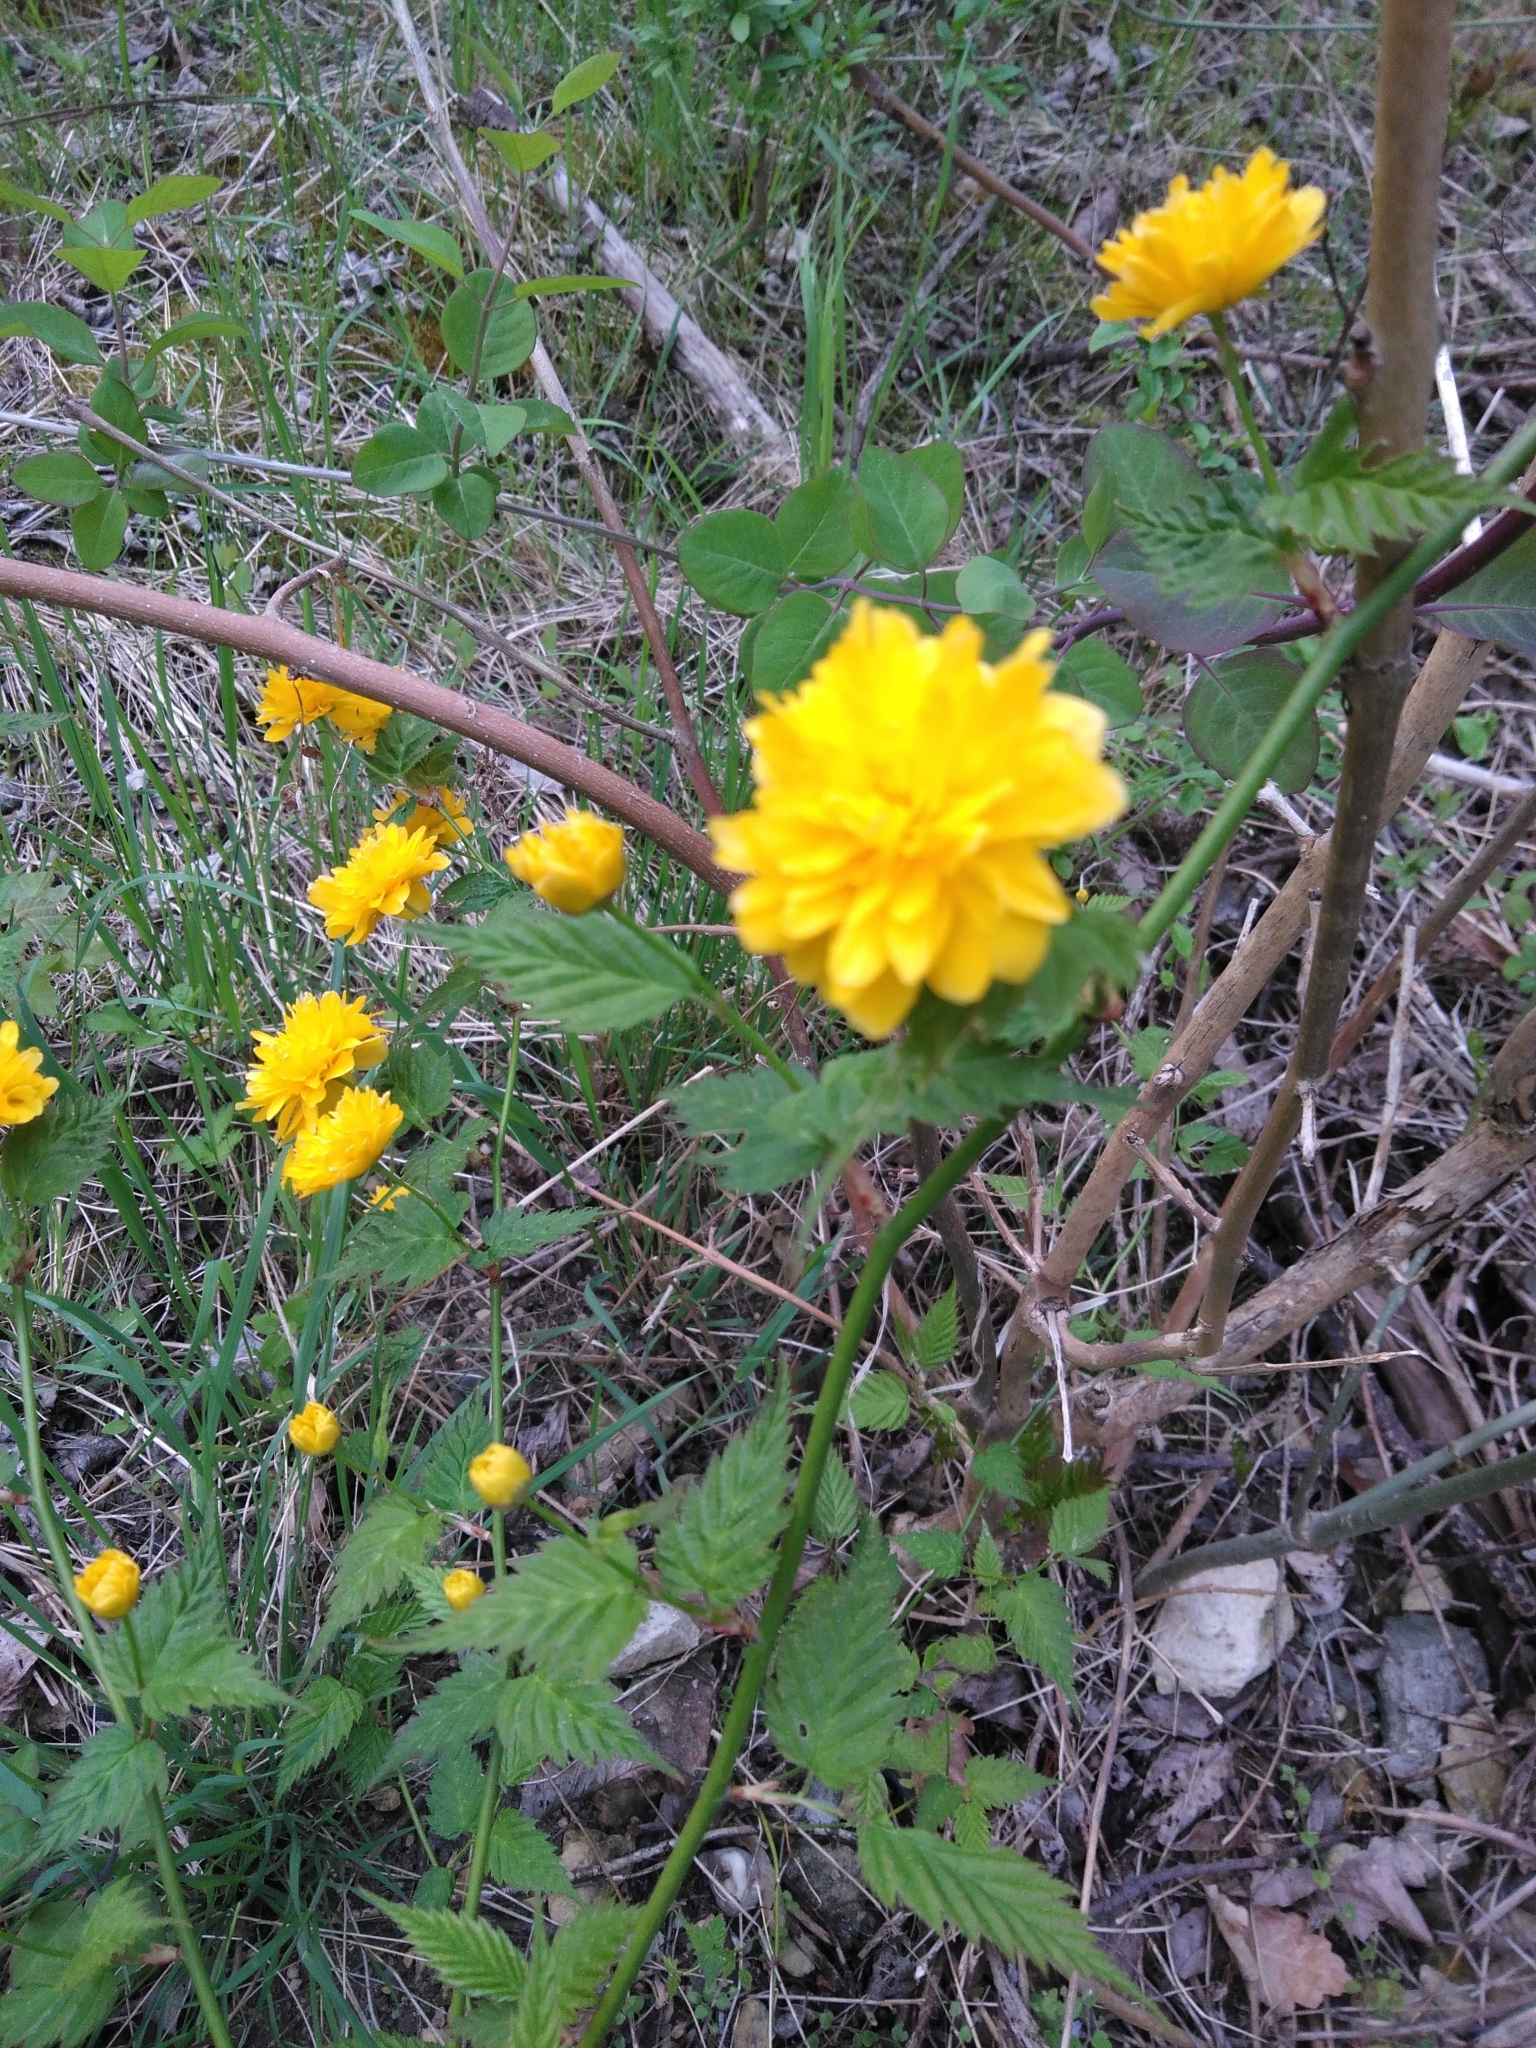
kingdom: Plantae
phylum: Tracheophyta
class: Magnoliopsida
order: Rosales
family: Rosaceae
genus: Kerria
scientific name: Kerria japonica
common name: Japanese kerria
